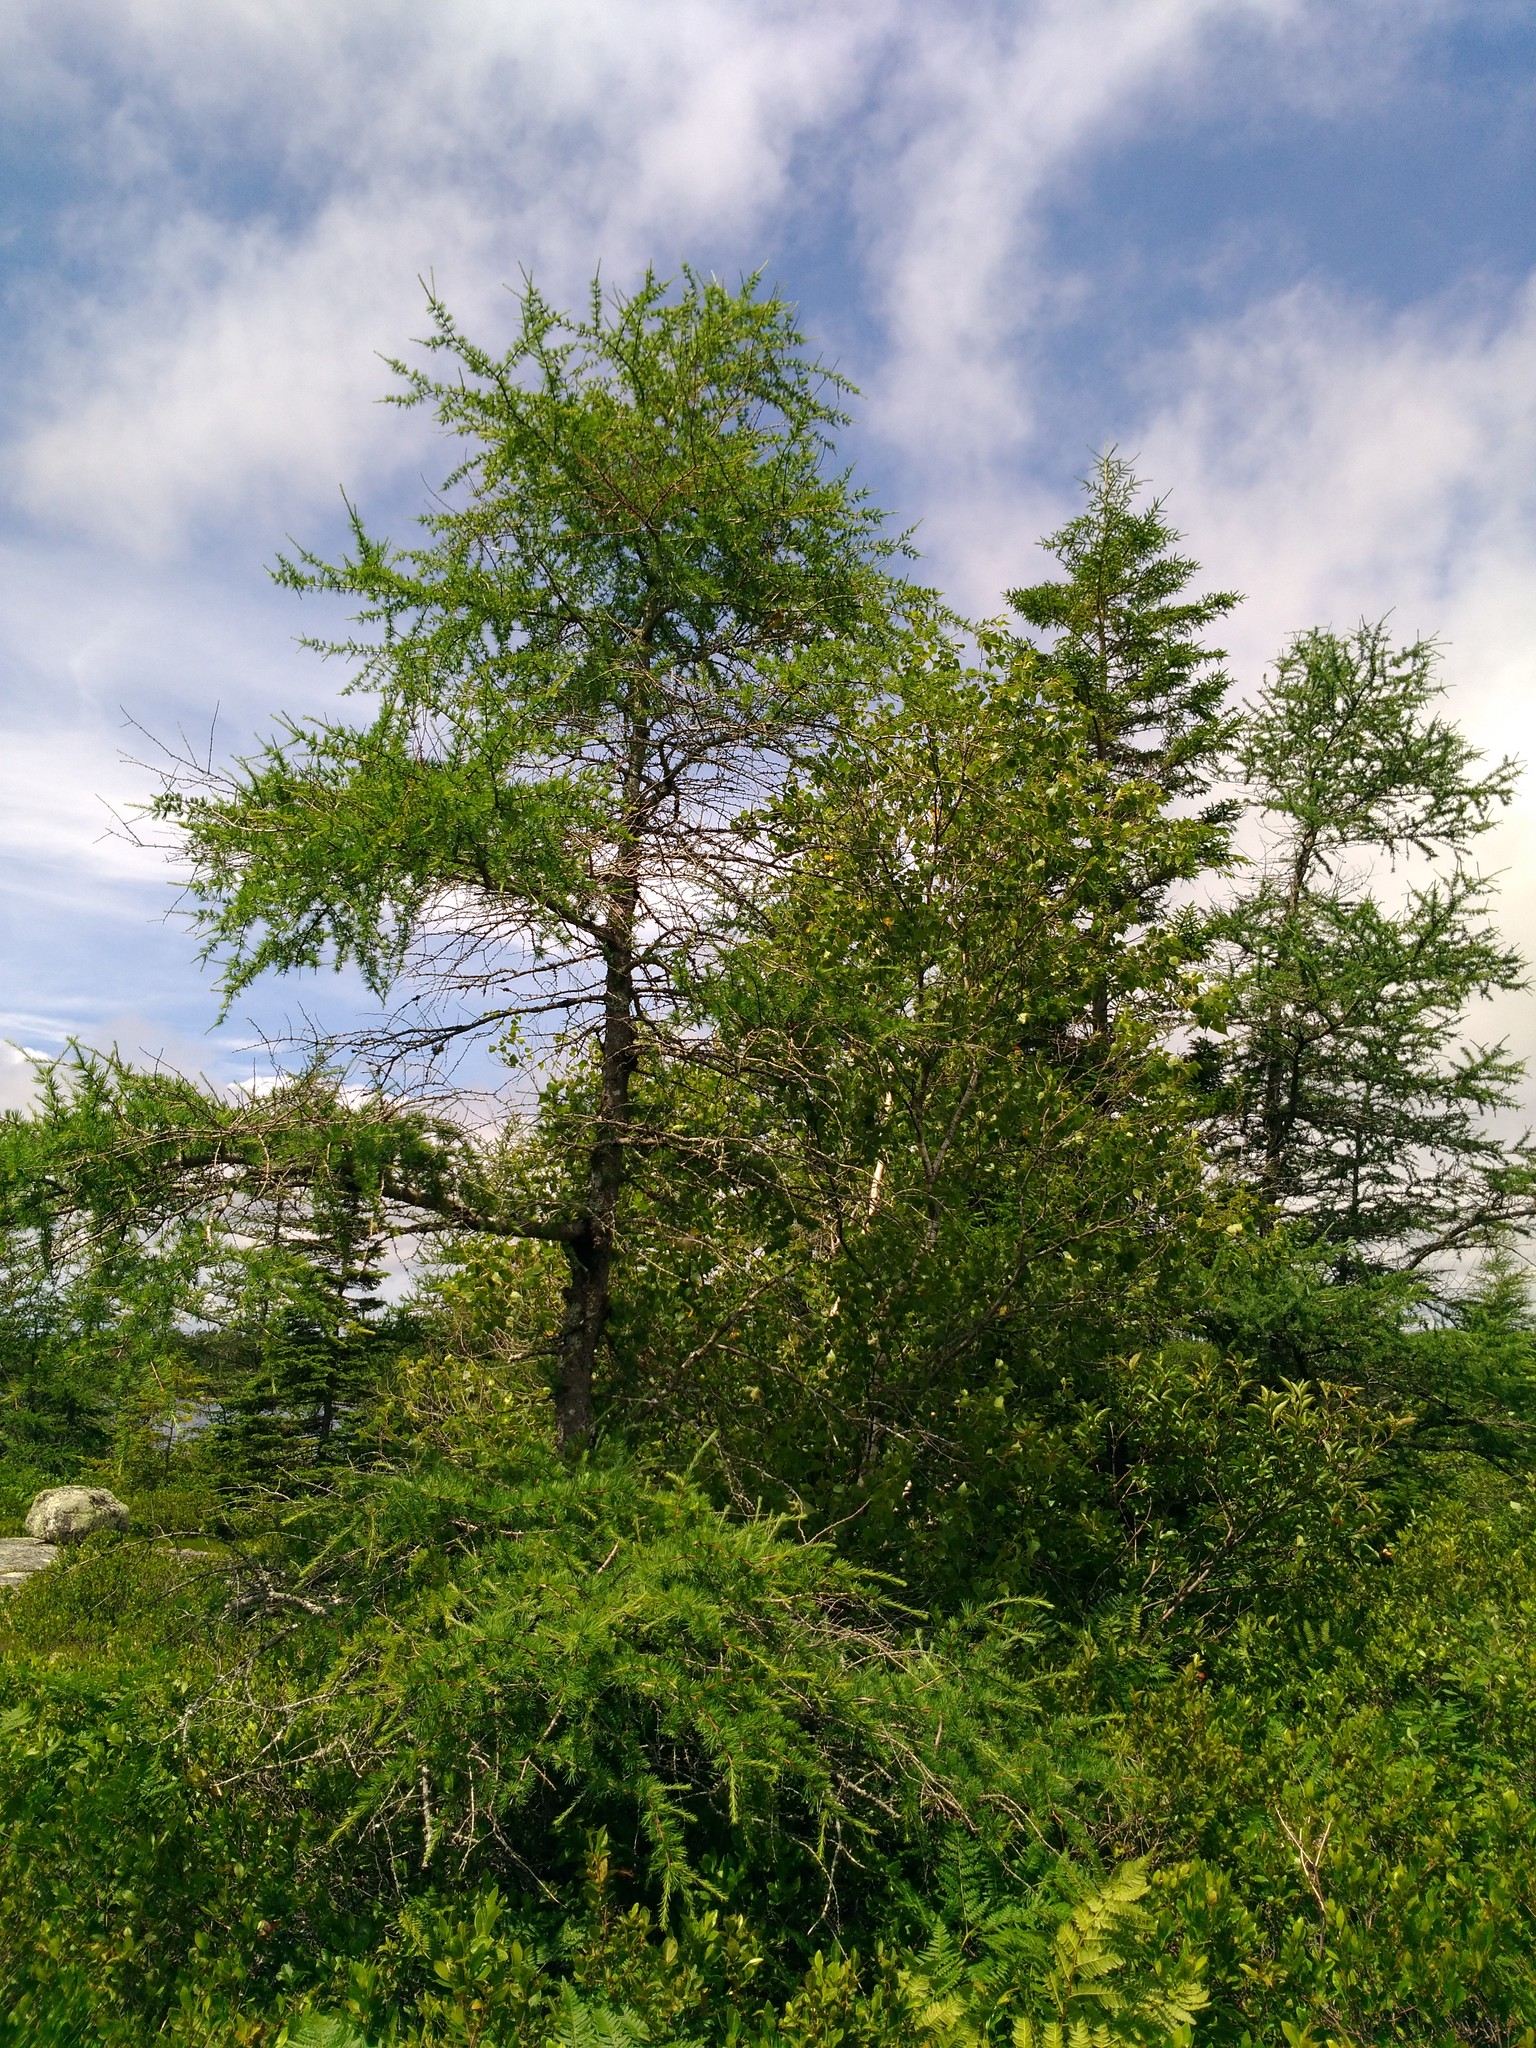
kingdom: Plantae
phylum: Tracheophyta
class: Pinopsida
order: Pinales
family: Pinaceae
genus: Larix
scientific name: Larix laricina
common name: American larch
